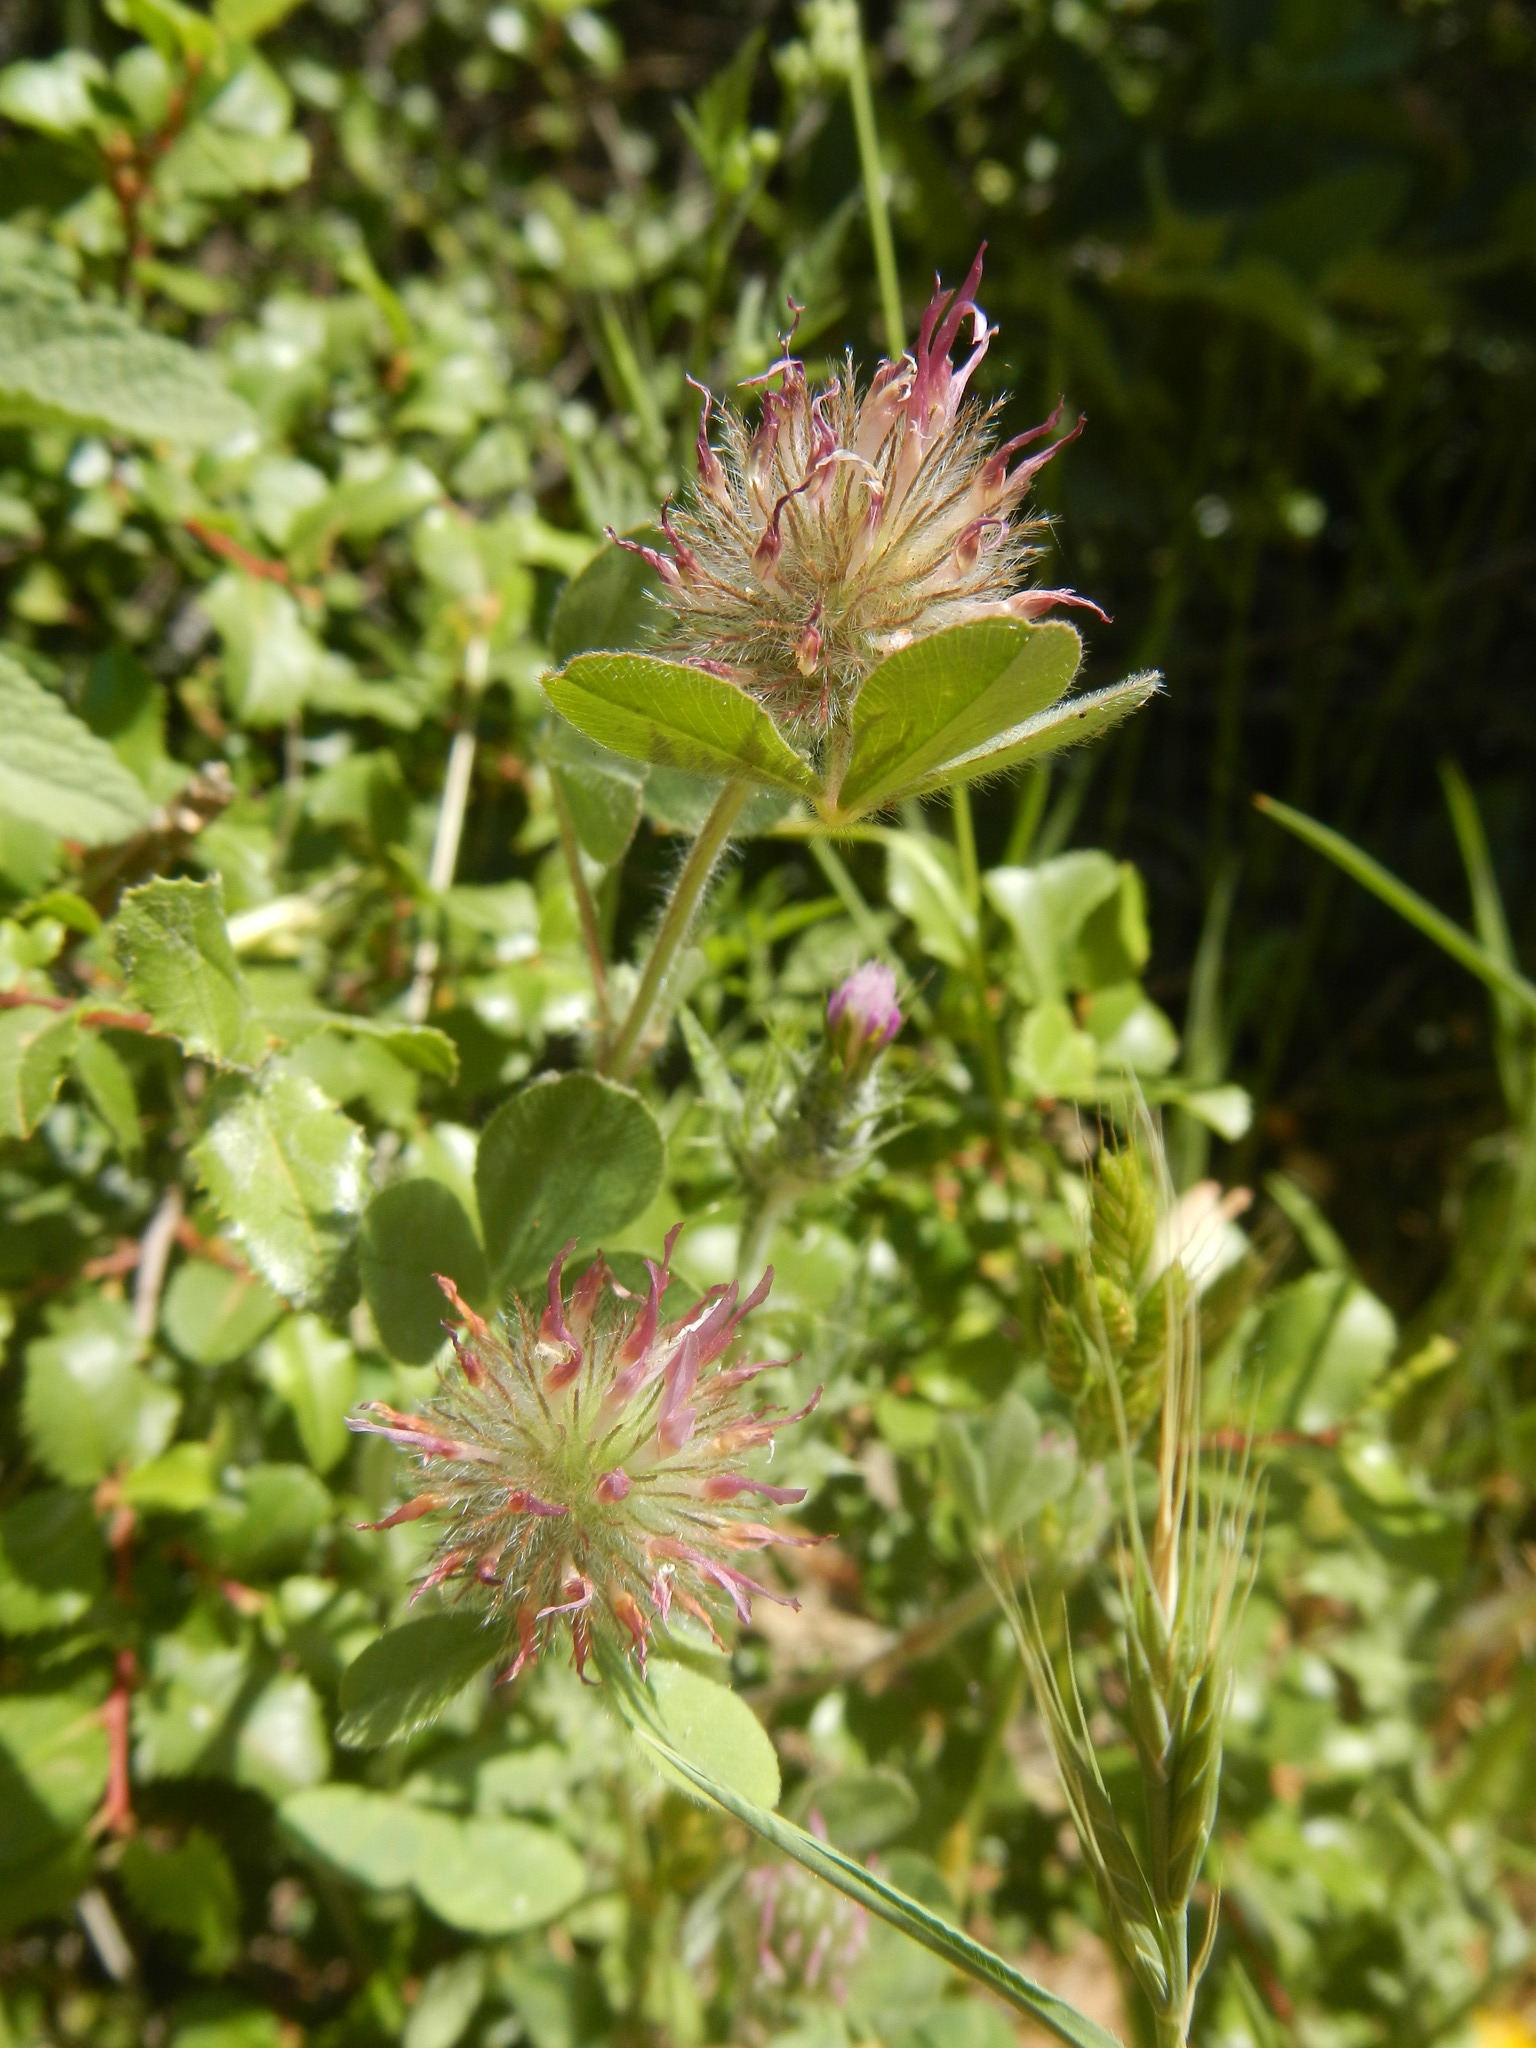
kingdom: Plantae
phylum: Tracheophyta
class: Magnoliopsida
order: Fabales
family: Fabaceae
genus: Trifolium
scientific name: Trifolium hirtum
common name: Rose clover
